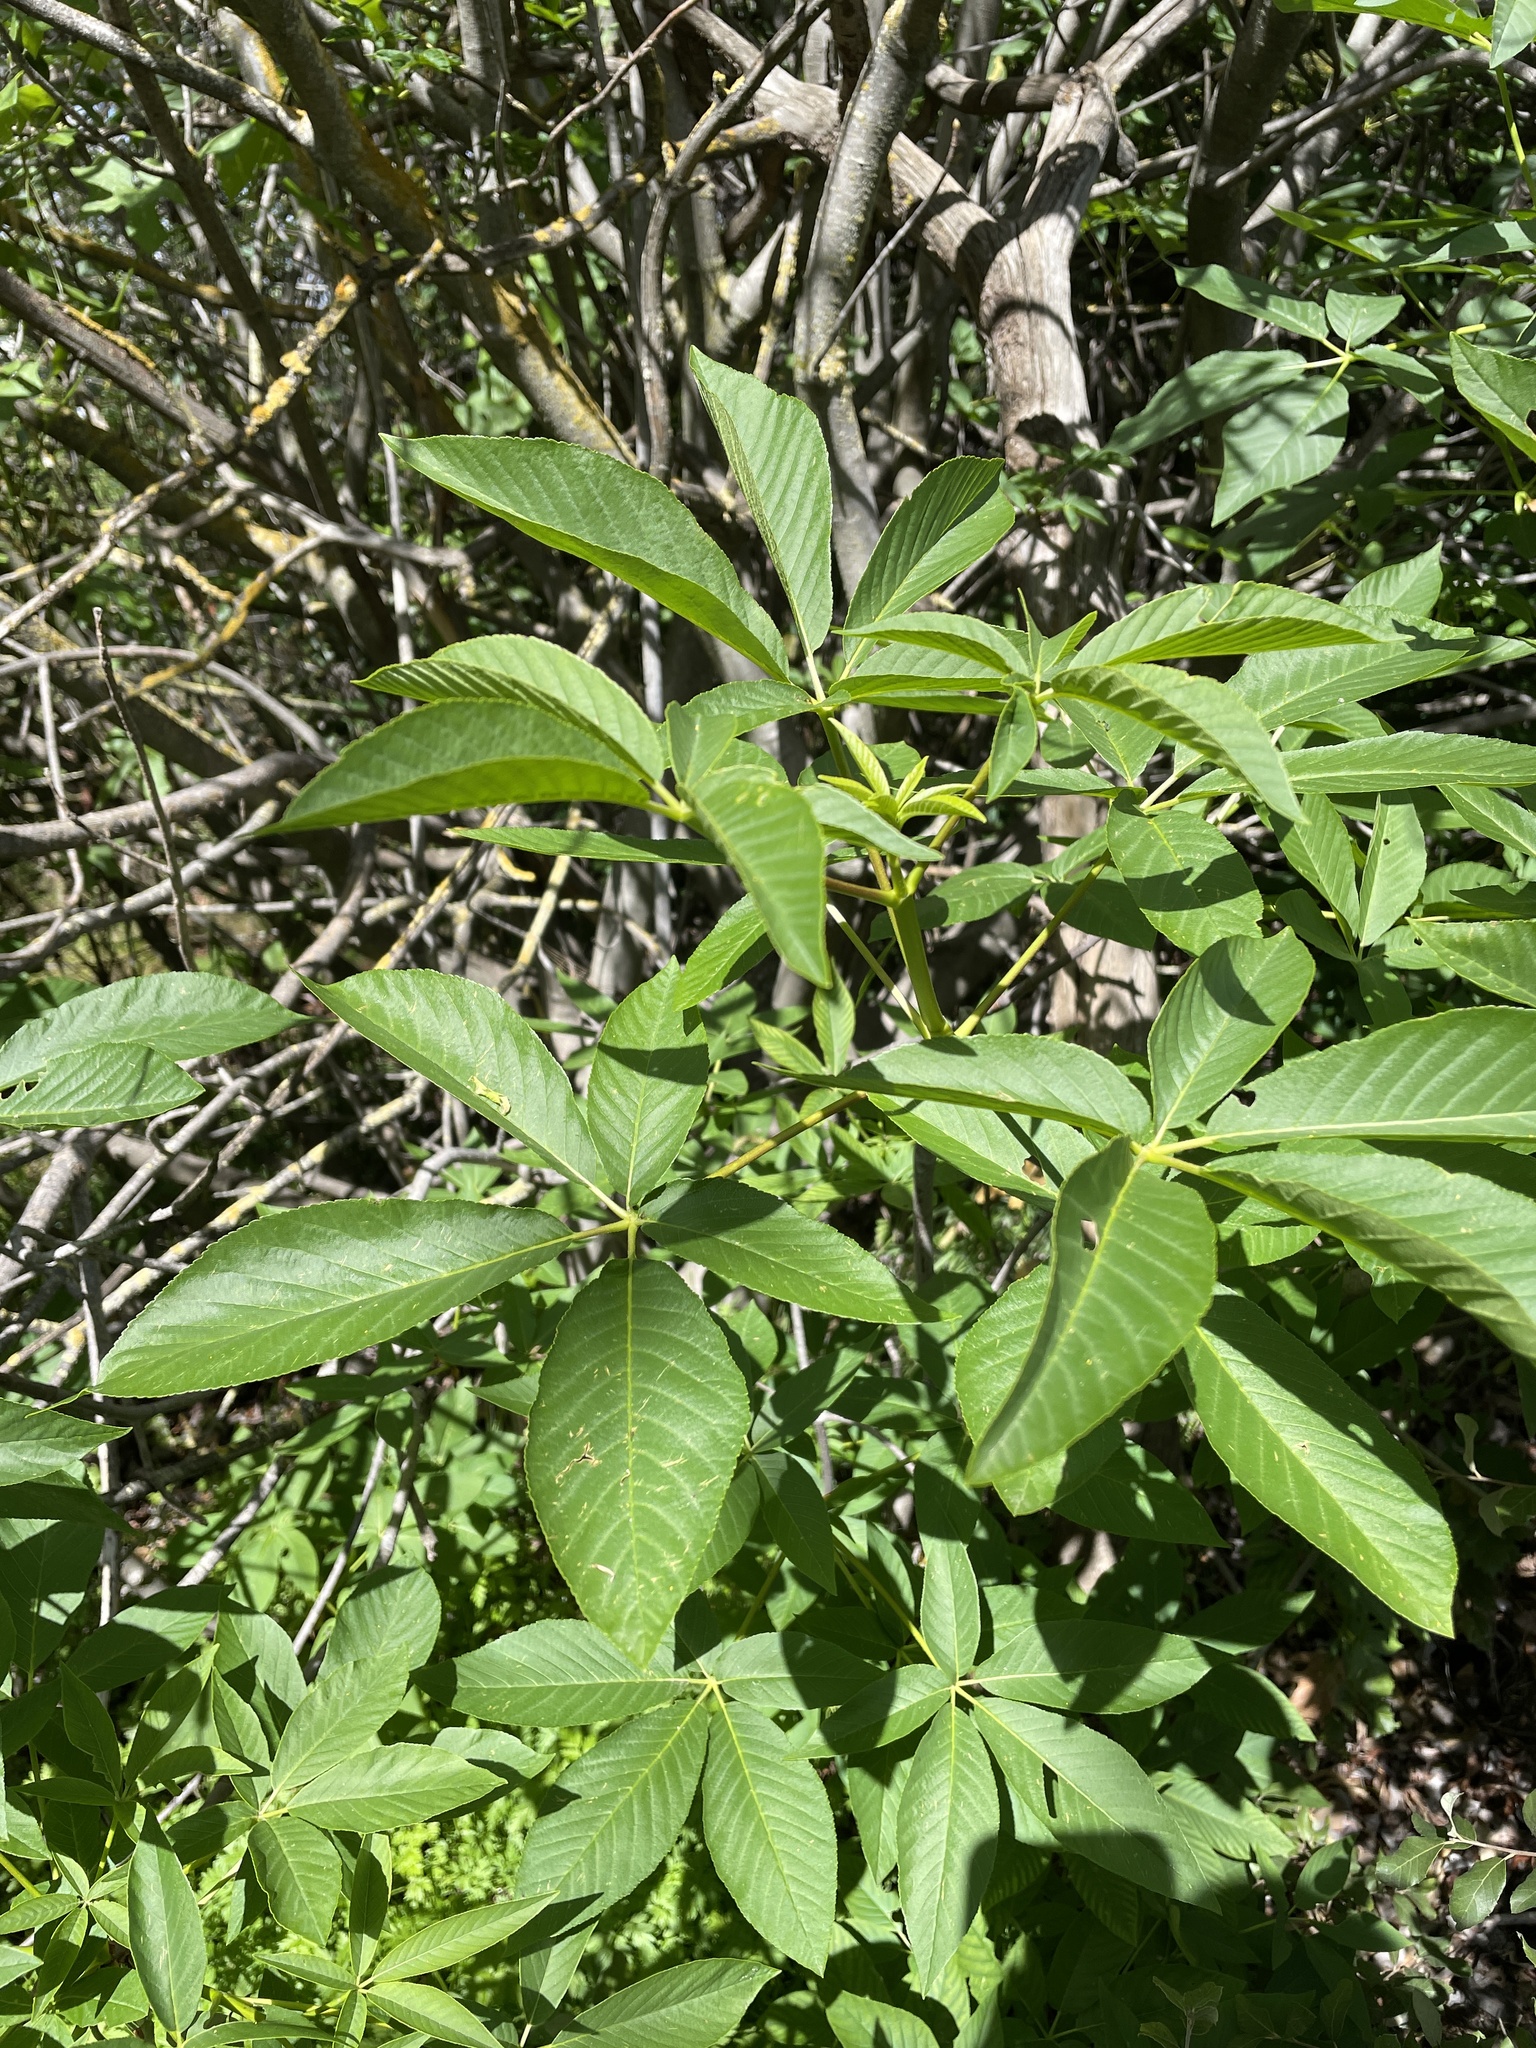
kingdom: Plantae
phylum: Tracheophyta
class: Magnoliopsida
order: Sapindales
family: Sapindaceae
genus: Aesculus
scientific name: Aesculus californica
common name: California buckeye
